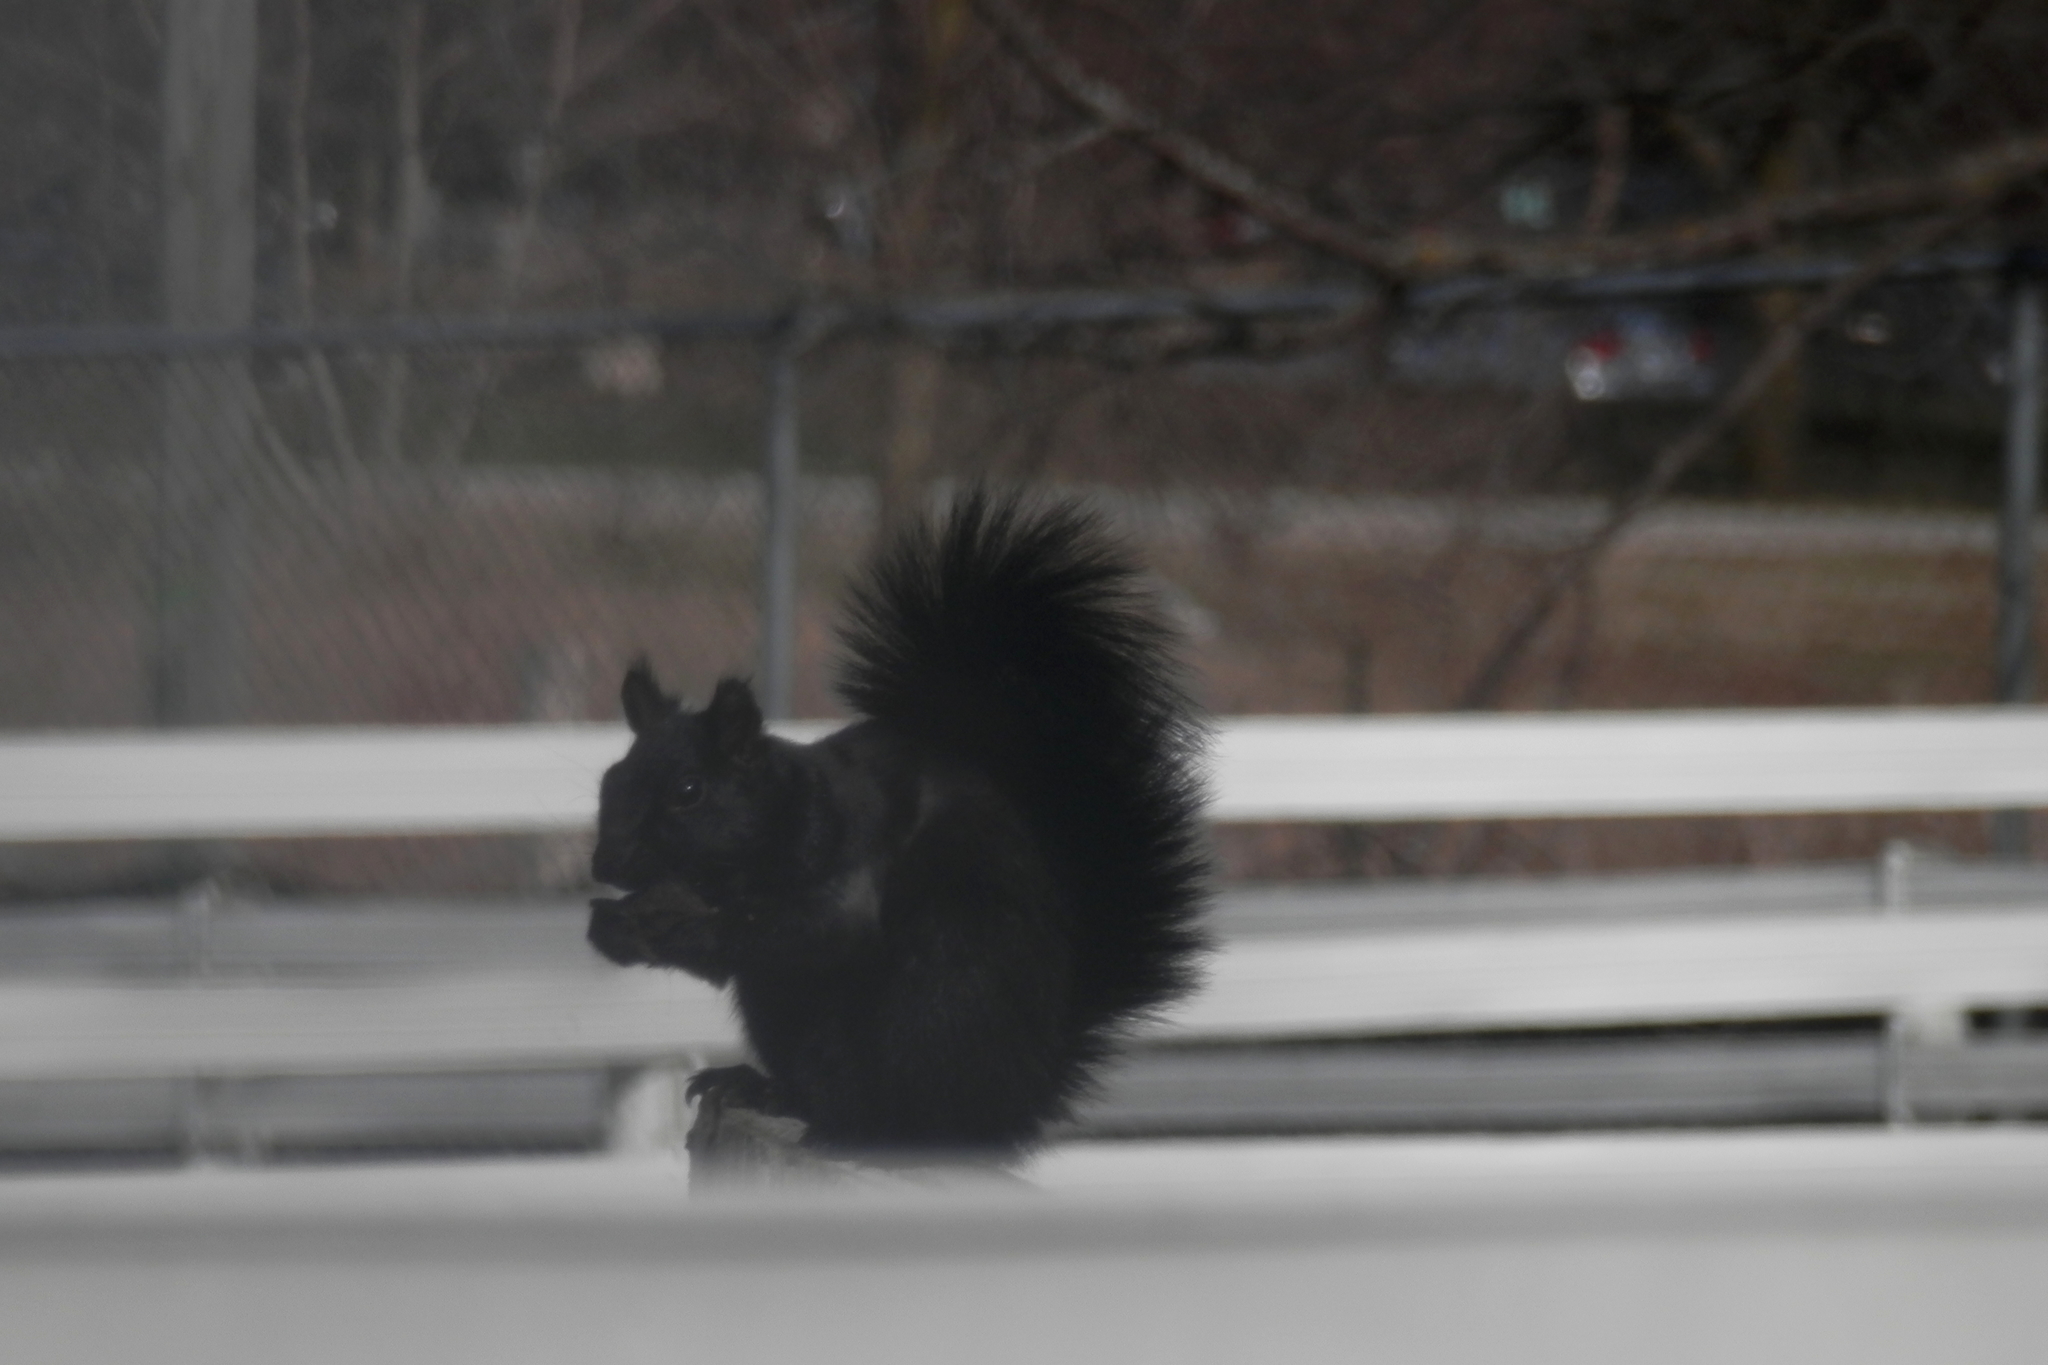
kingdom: Animalia
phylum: Chordata
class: Mammalia
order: Rodentia
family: Sciuridae
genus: Sciurus
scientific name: Sciurus carolinensis
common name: Eastern gray squirrel
